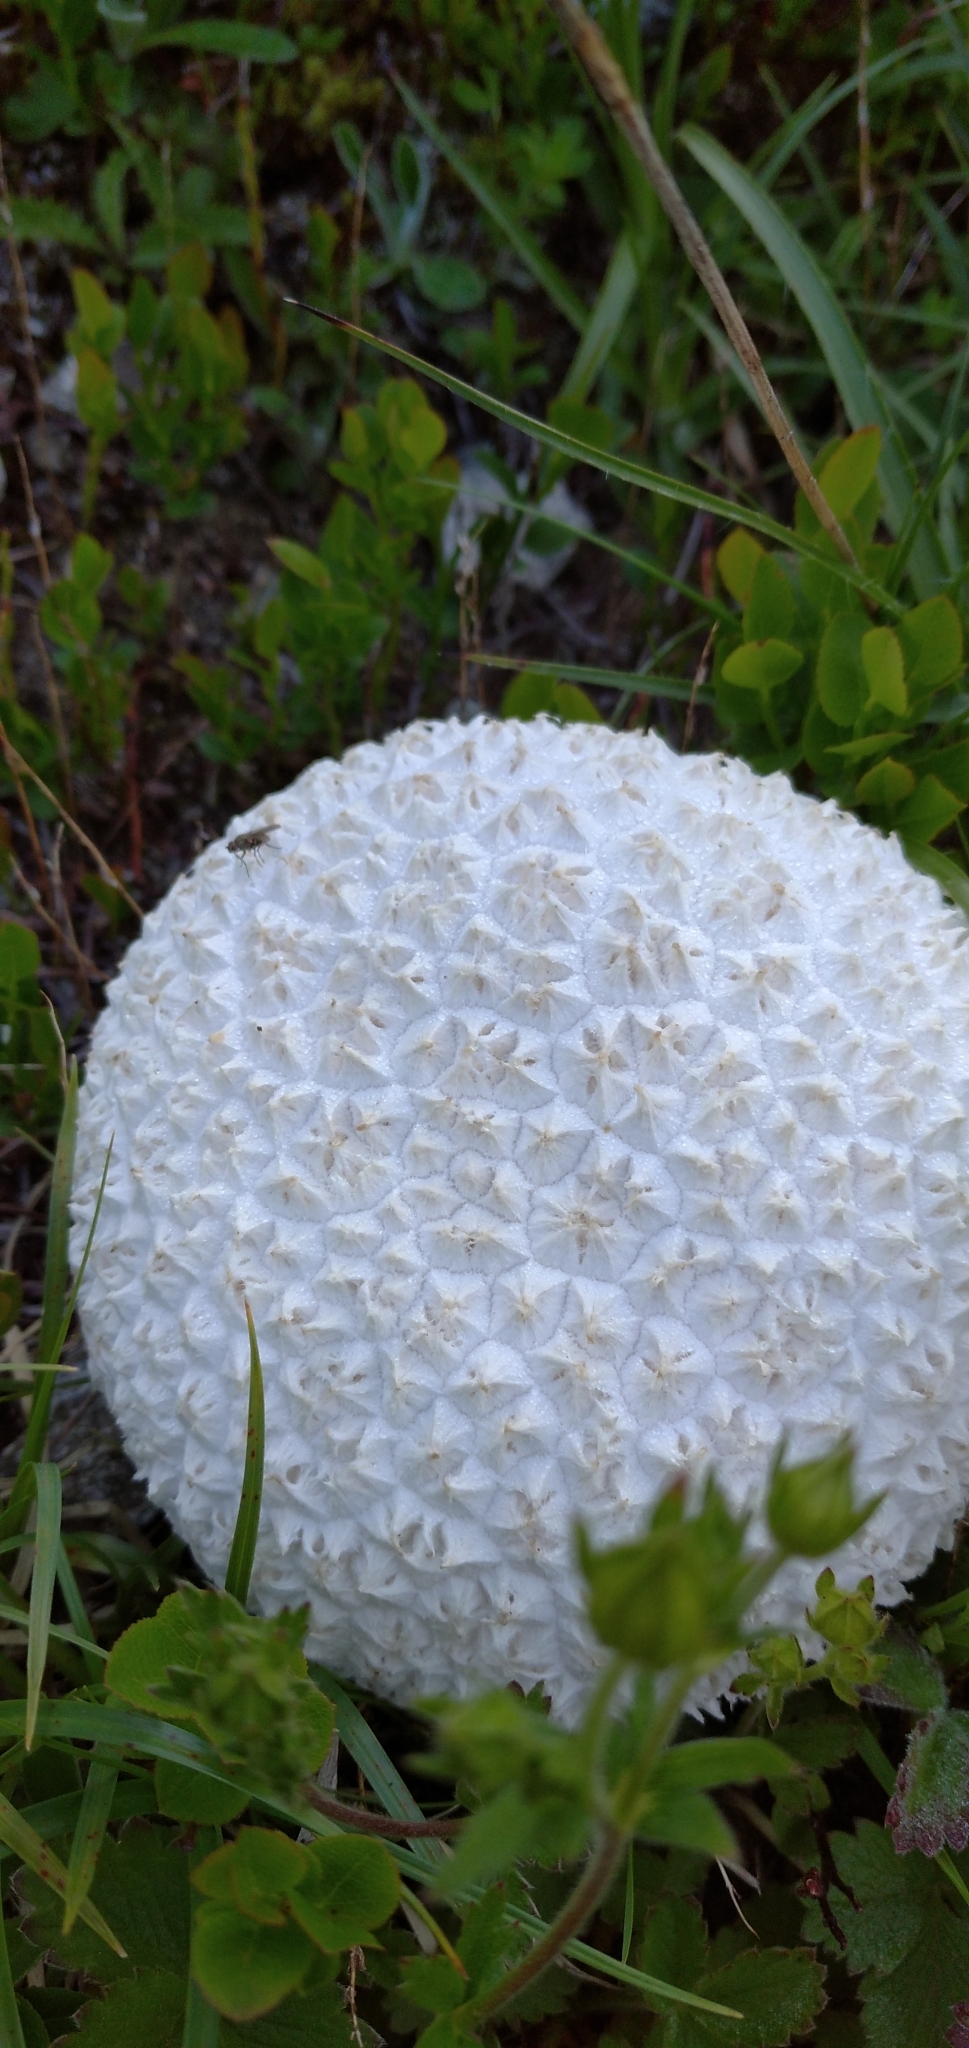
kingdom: Fungi
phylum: Basidiomycota
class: Agaricomycetes
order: Agaricales
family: Lycoperdaceae
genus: Bovistella
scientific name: Bovistella utriformis
